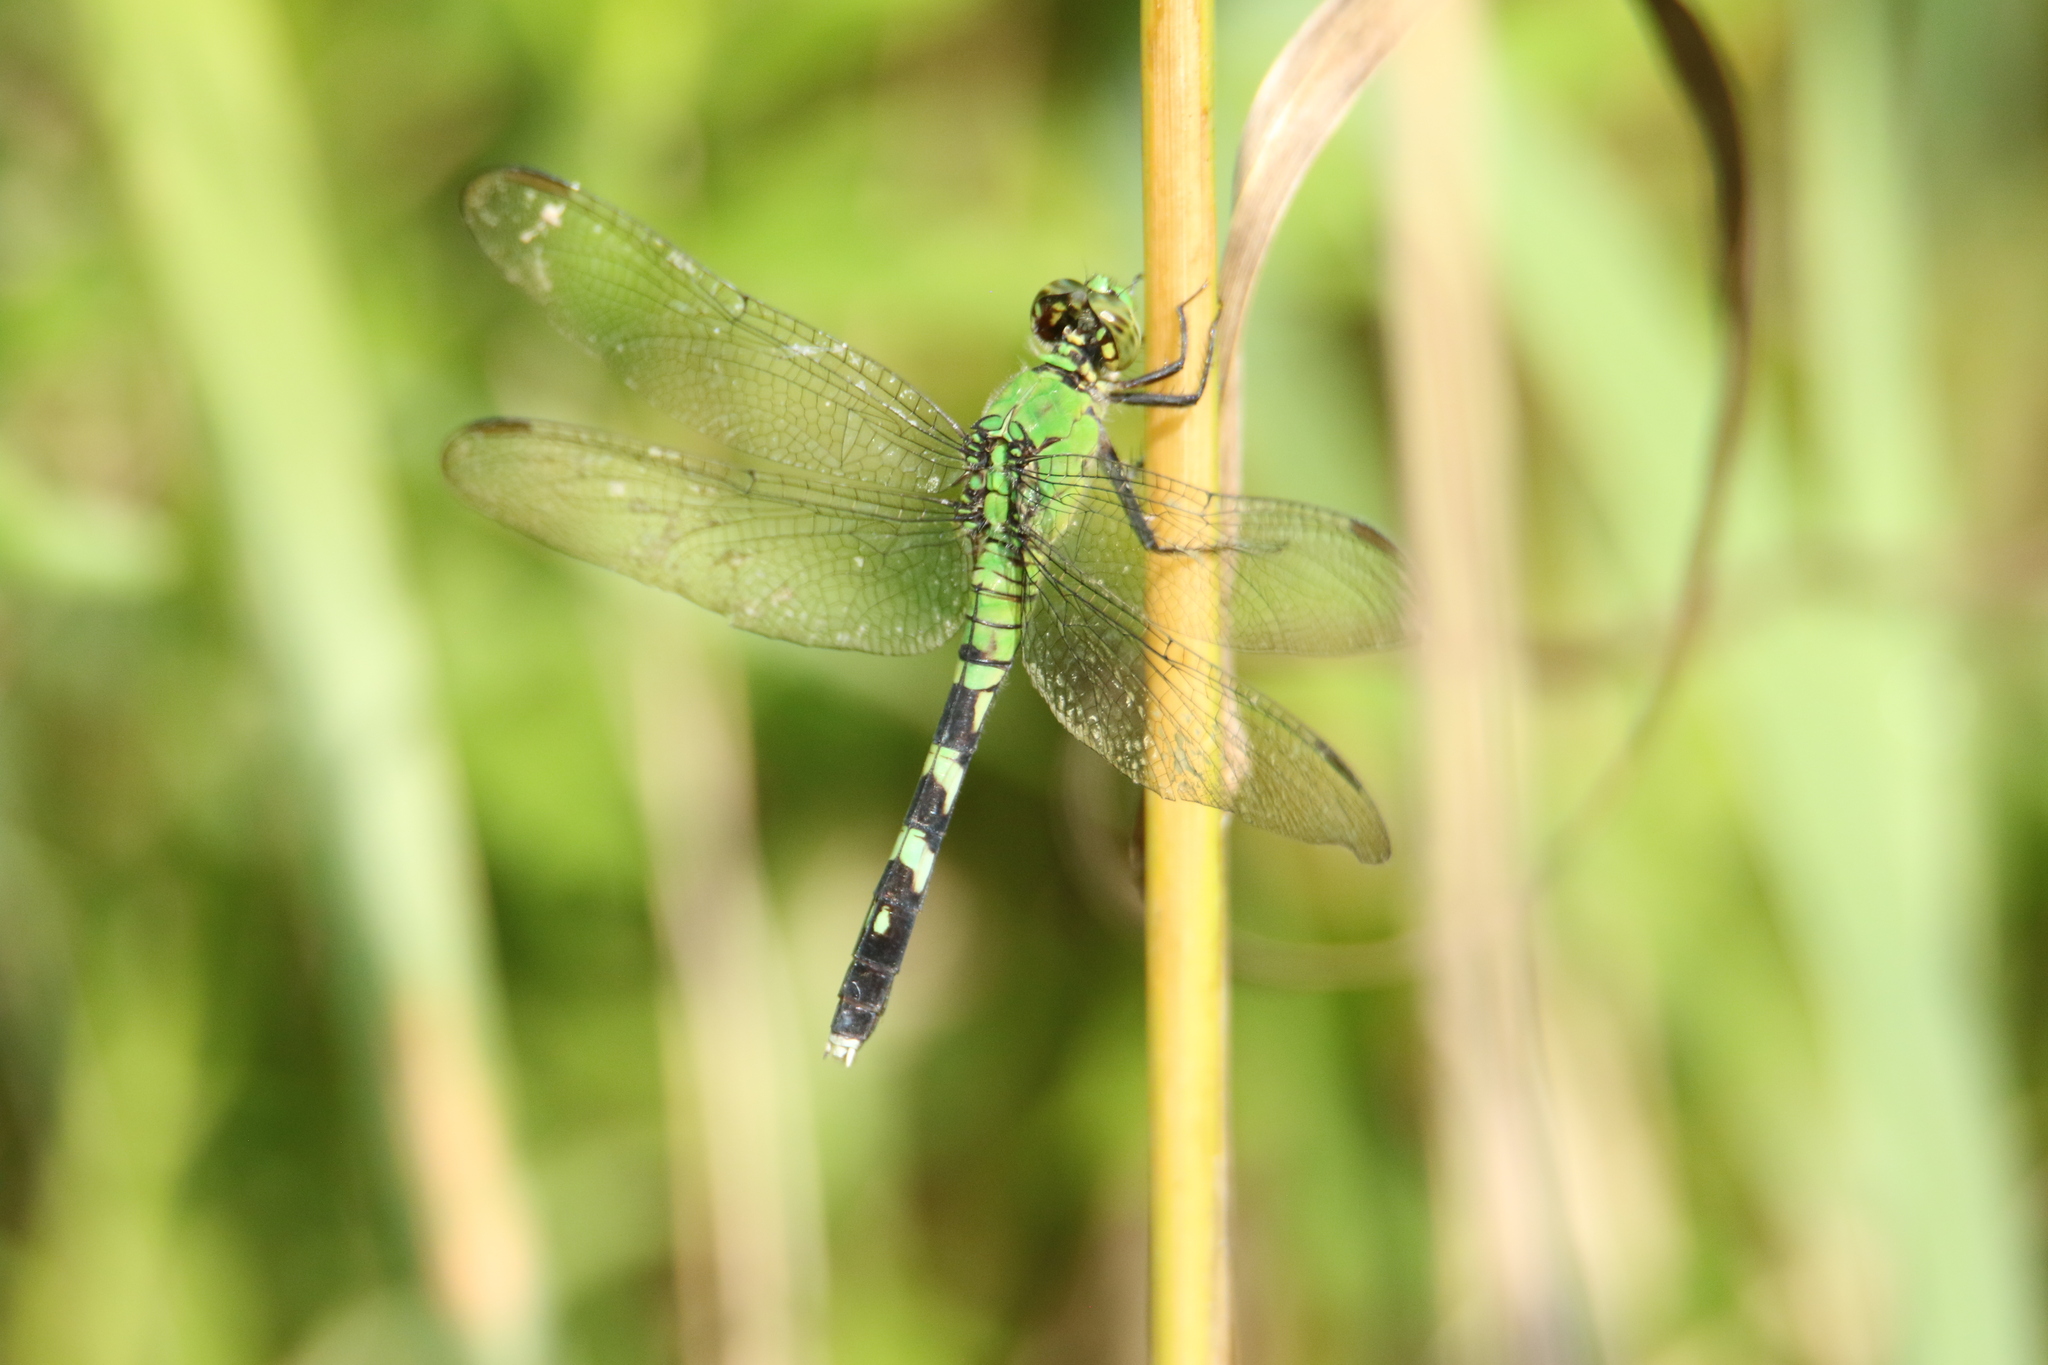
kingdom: Animalia
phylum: Arthropoda
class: Insecta
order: Odonata
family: Libellulidae
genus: Erythemis
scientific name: Erythemis simplicicollis
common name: Eastern pondhawk
